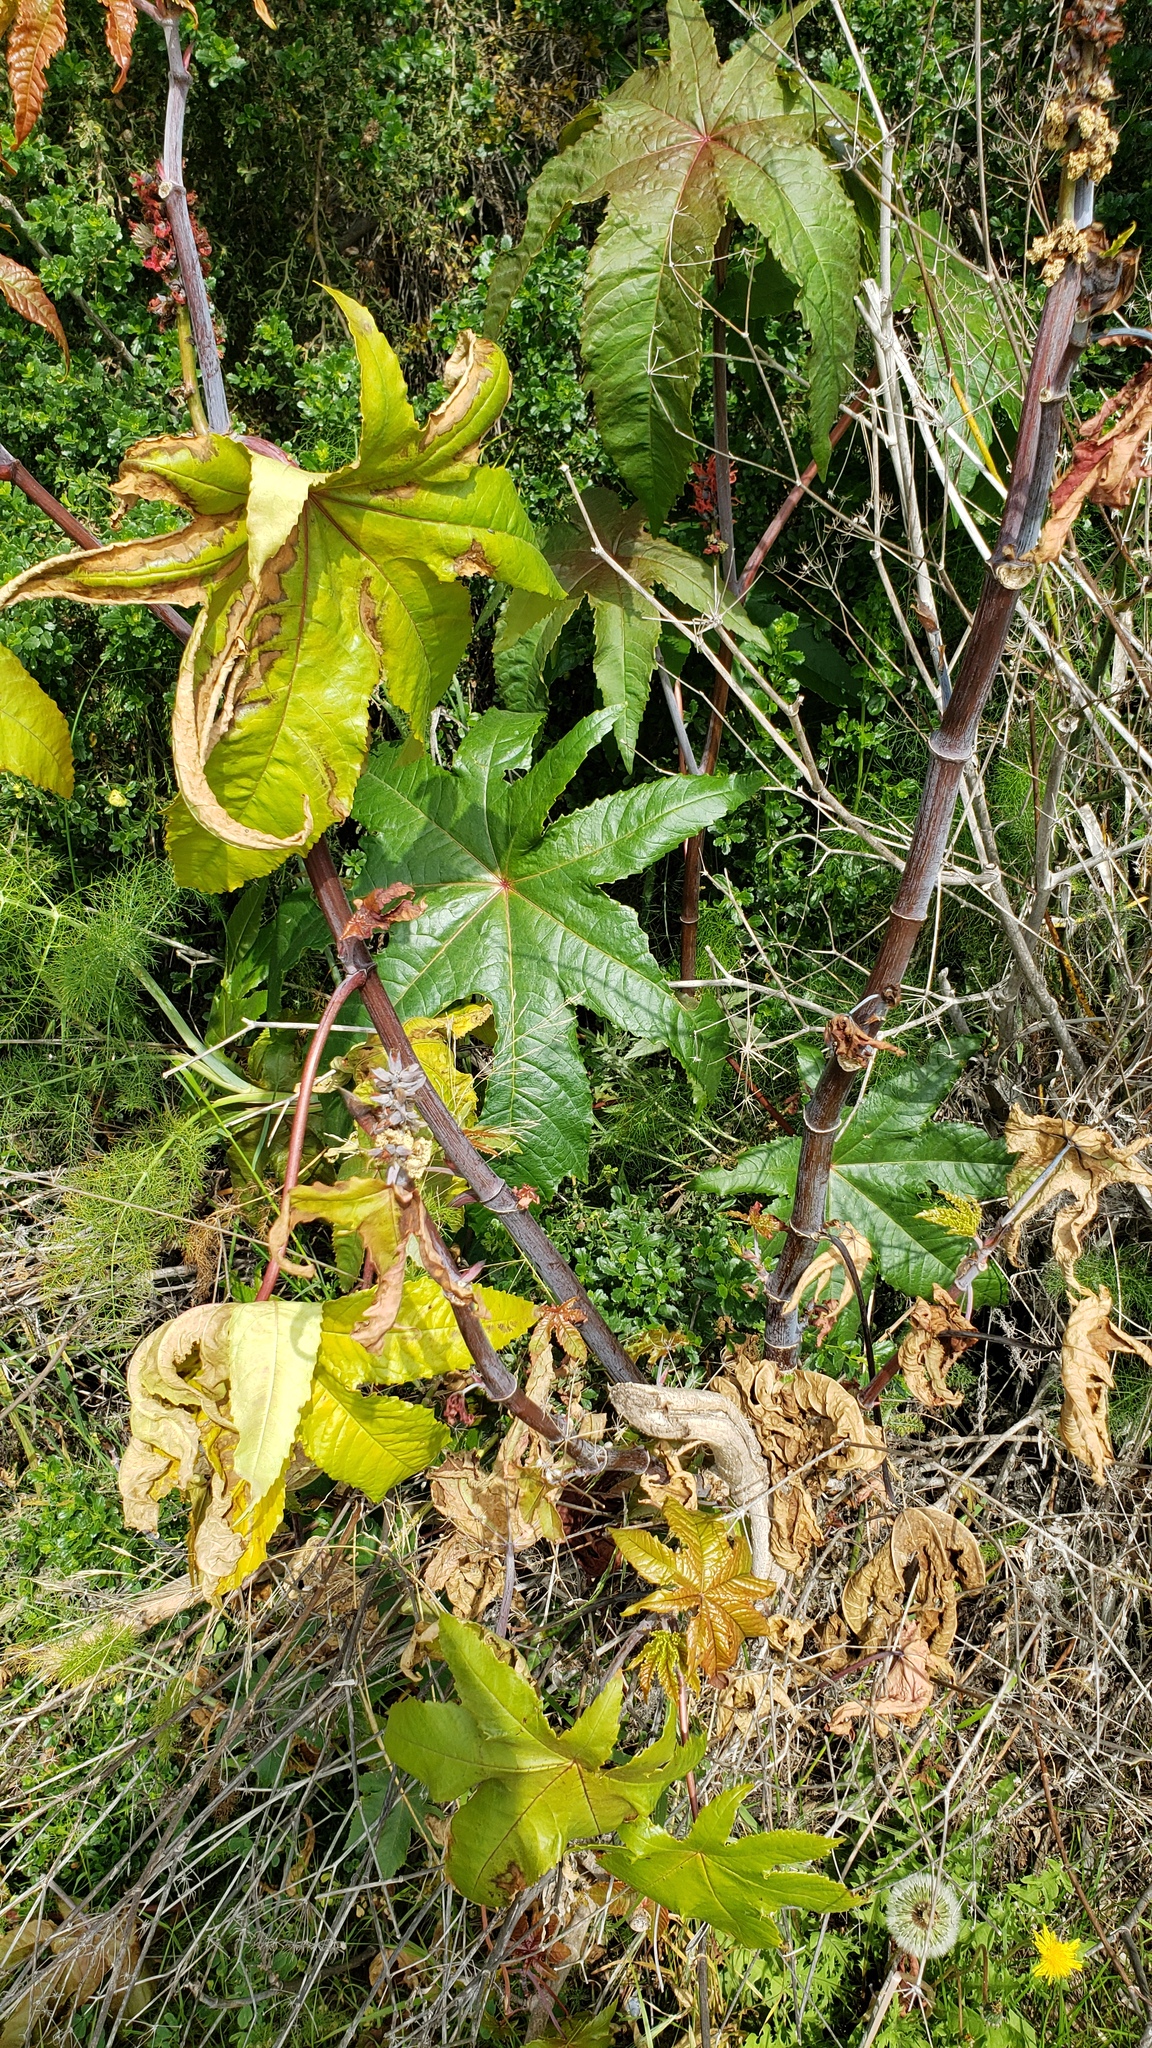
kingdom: Plantae
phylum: Tracheophyta
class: Magnoliopsida
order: Malpighiales
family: Euphorbiaceae
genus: Ricinus
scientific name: Ricinus communis
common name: Castor-oil-plant
